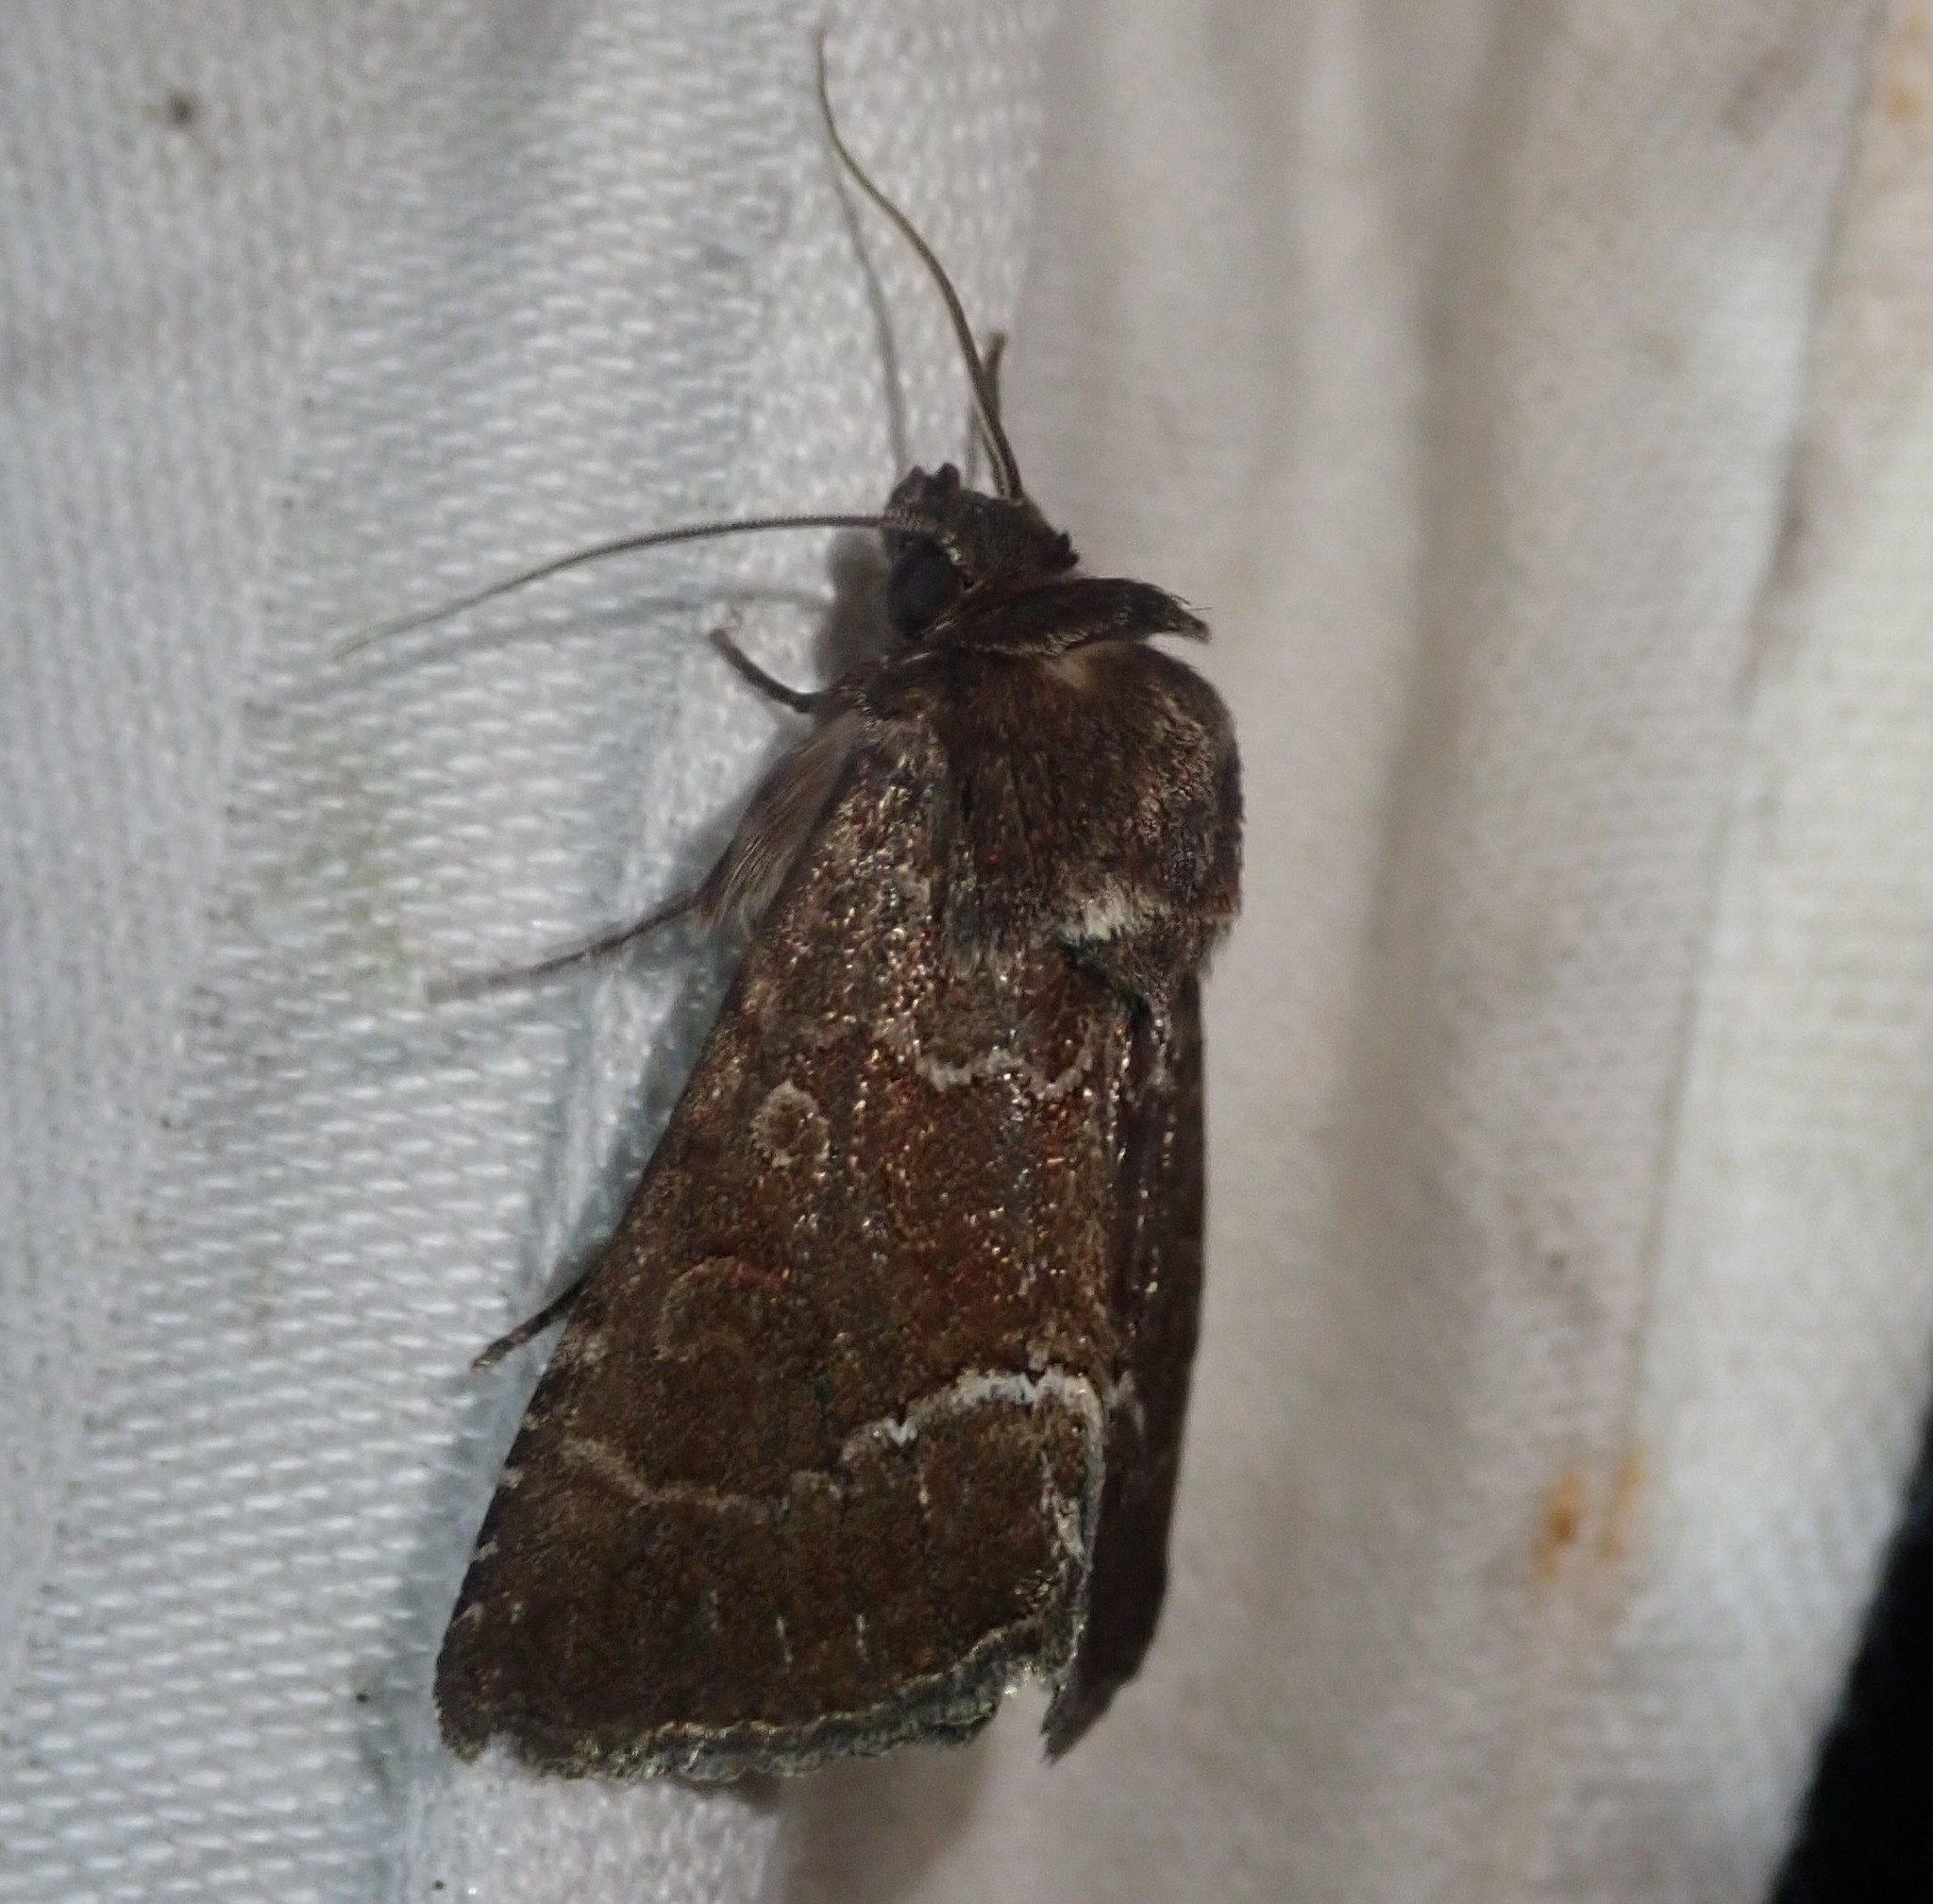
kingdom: Animalia
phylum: Arthropoda
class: Insecta
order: Lepidoptera
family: Noctuidae
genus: Thalpophila
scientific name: Thalpophila matura
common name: Straw underwing
